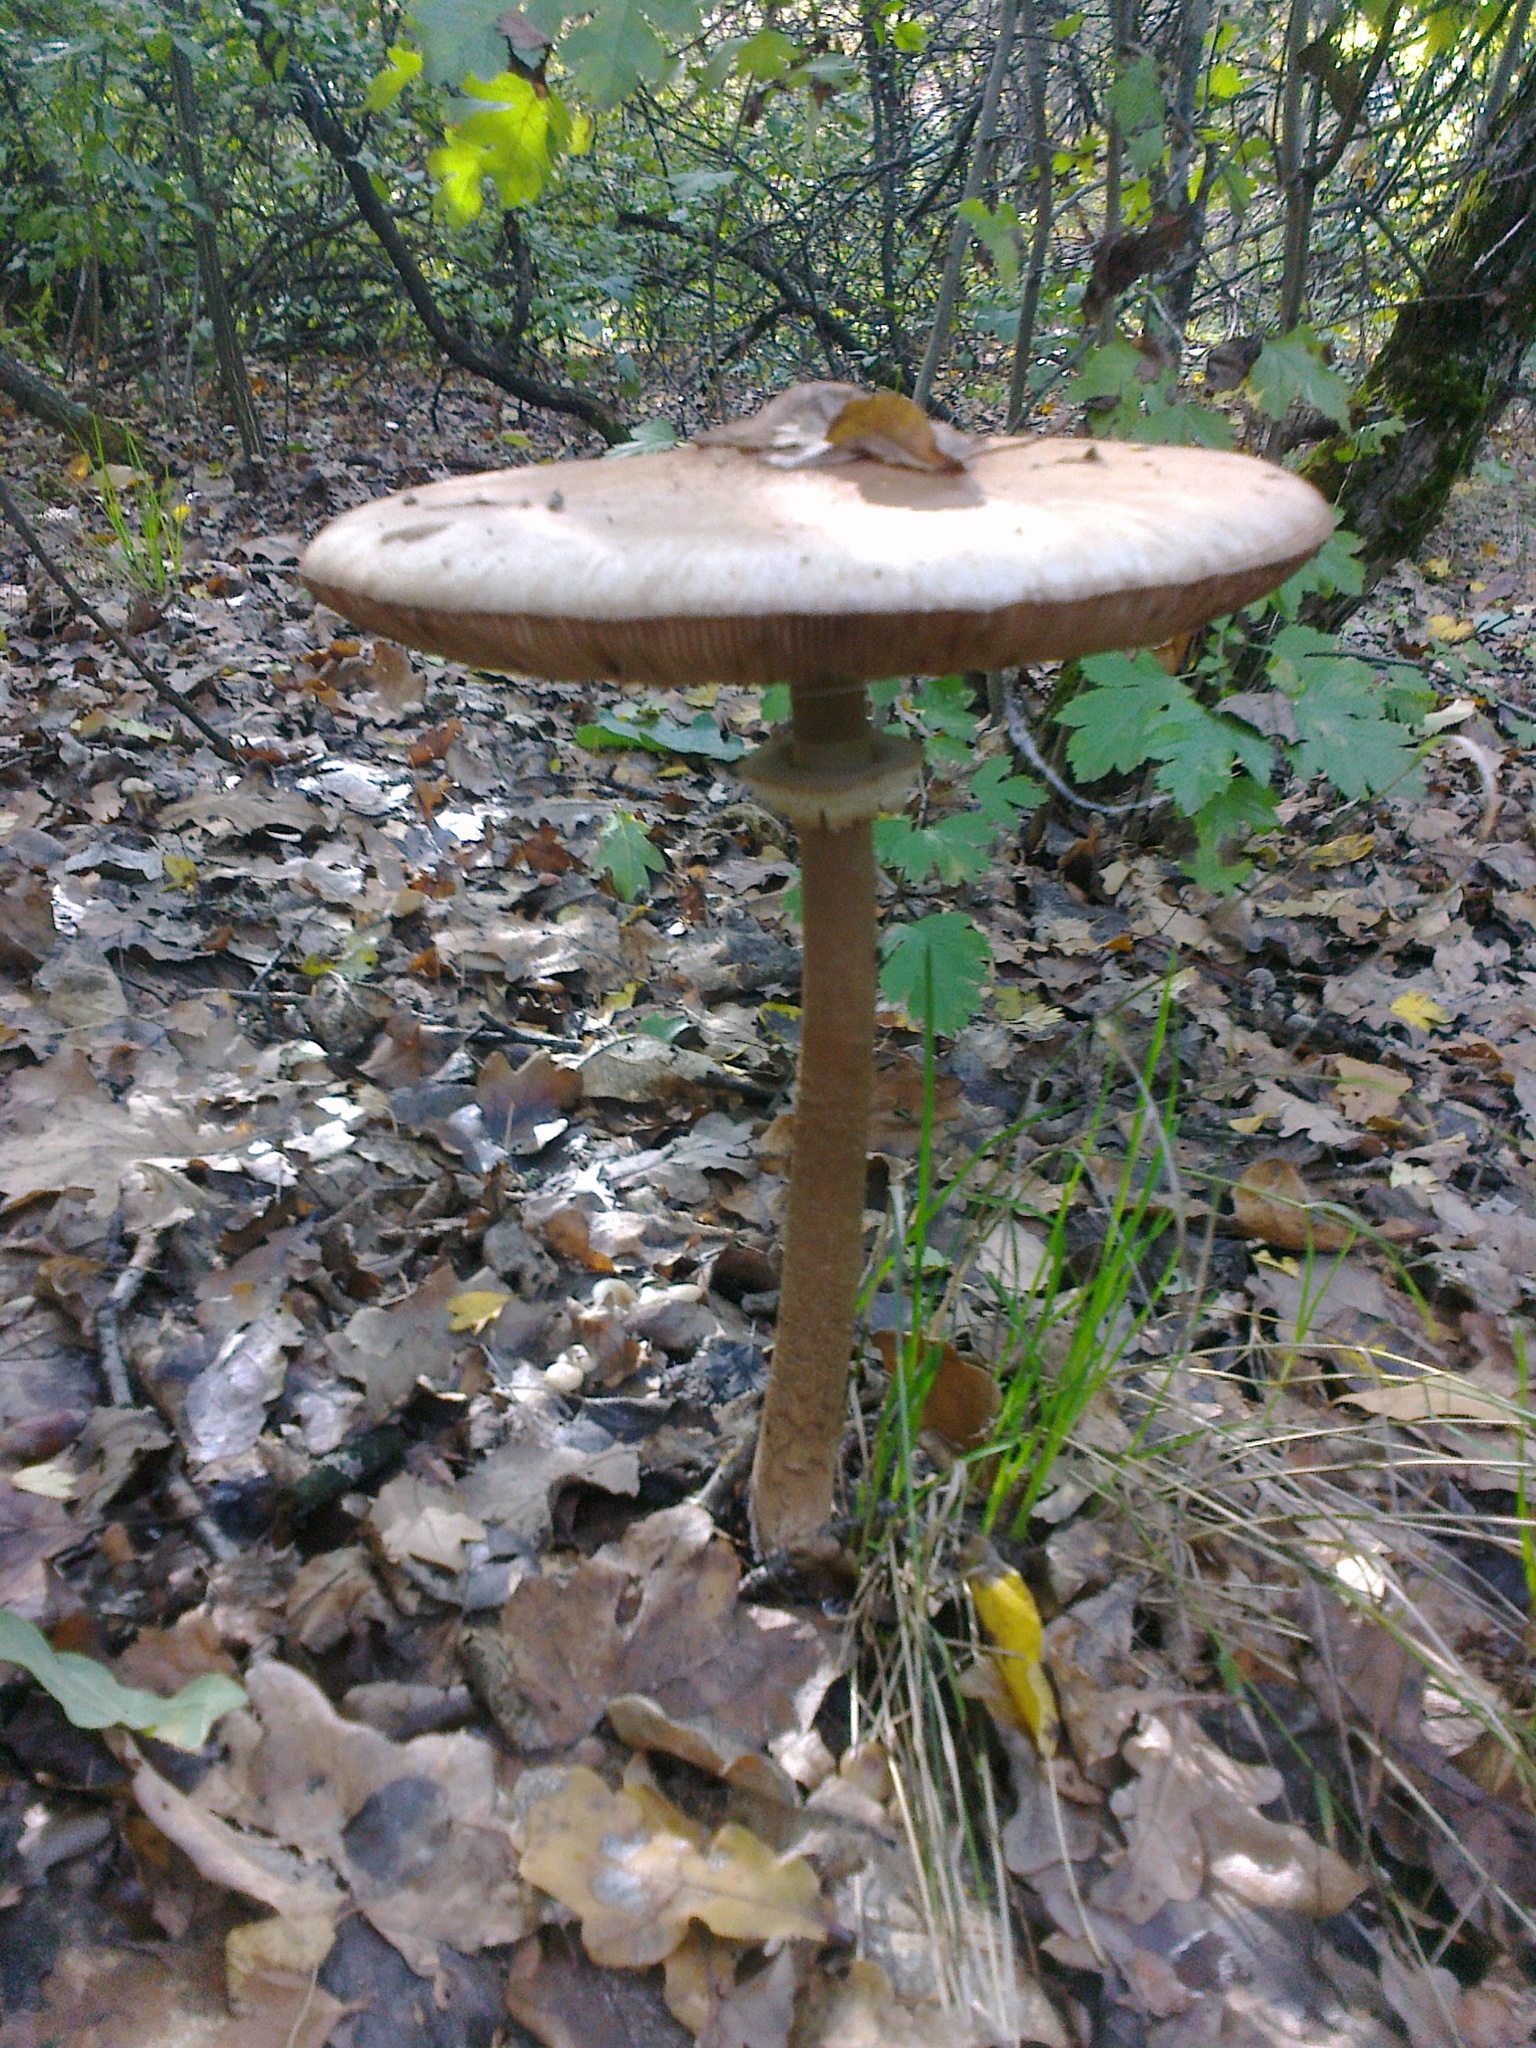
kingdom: Fungi
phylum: Basidiomycota
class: Agaricomycetes
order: Agaricales
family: Agaricaceae
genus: Macrolepiota
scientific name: Macrolepiota procera
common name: Parasol
